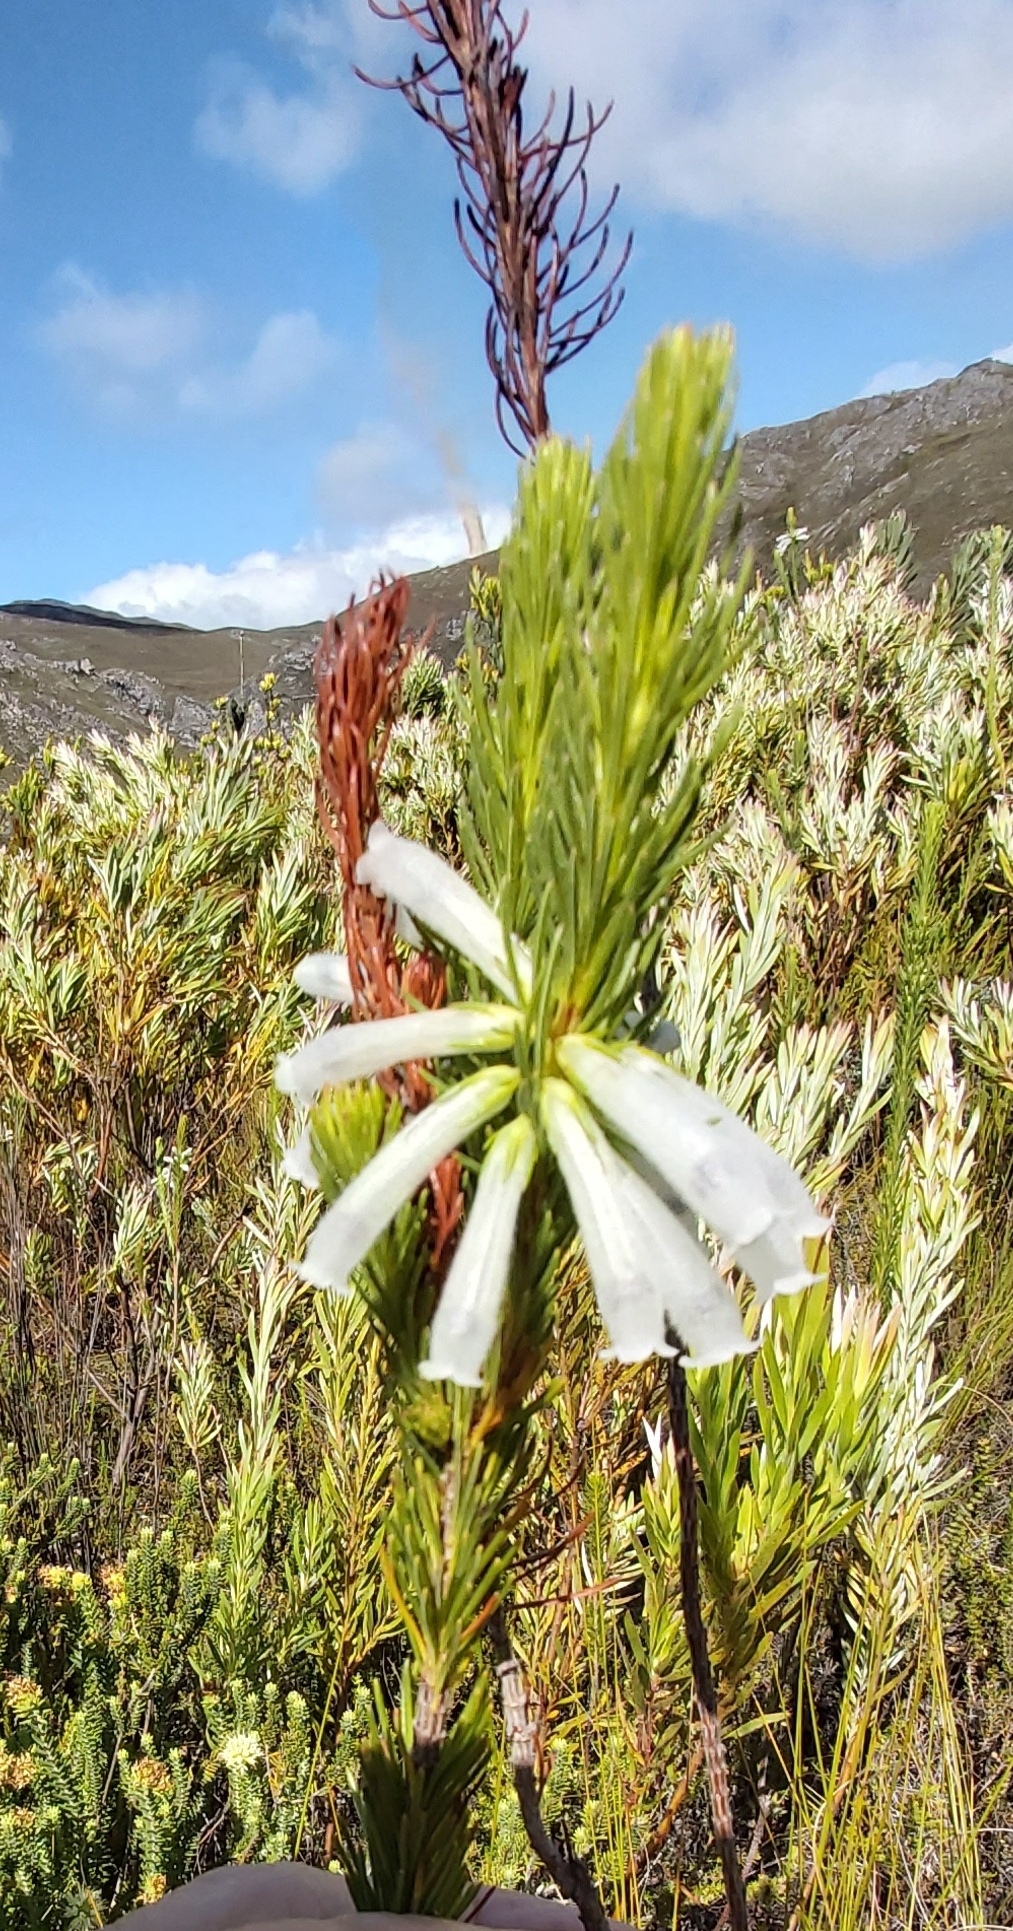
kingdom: Plantae
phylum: Tracheophyta
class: Magnoliopsida
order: Ericales
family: Ericaceae
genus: Erica
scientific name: Erica vestita
